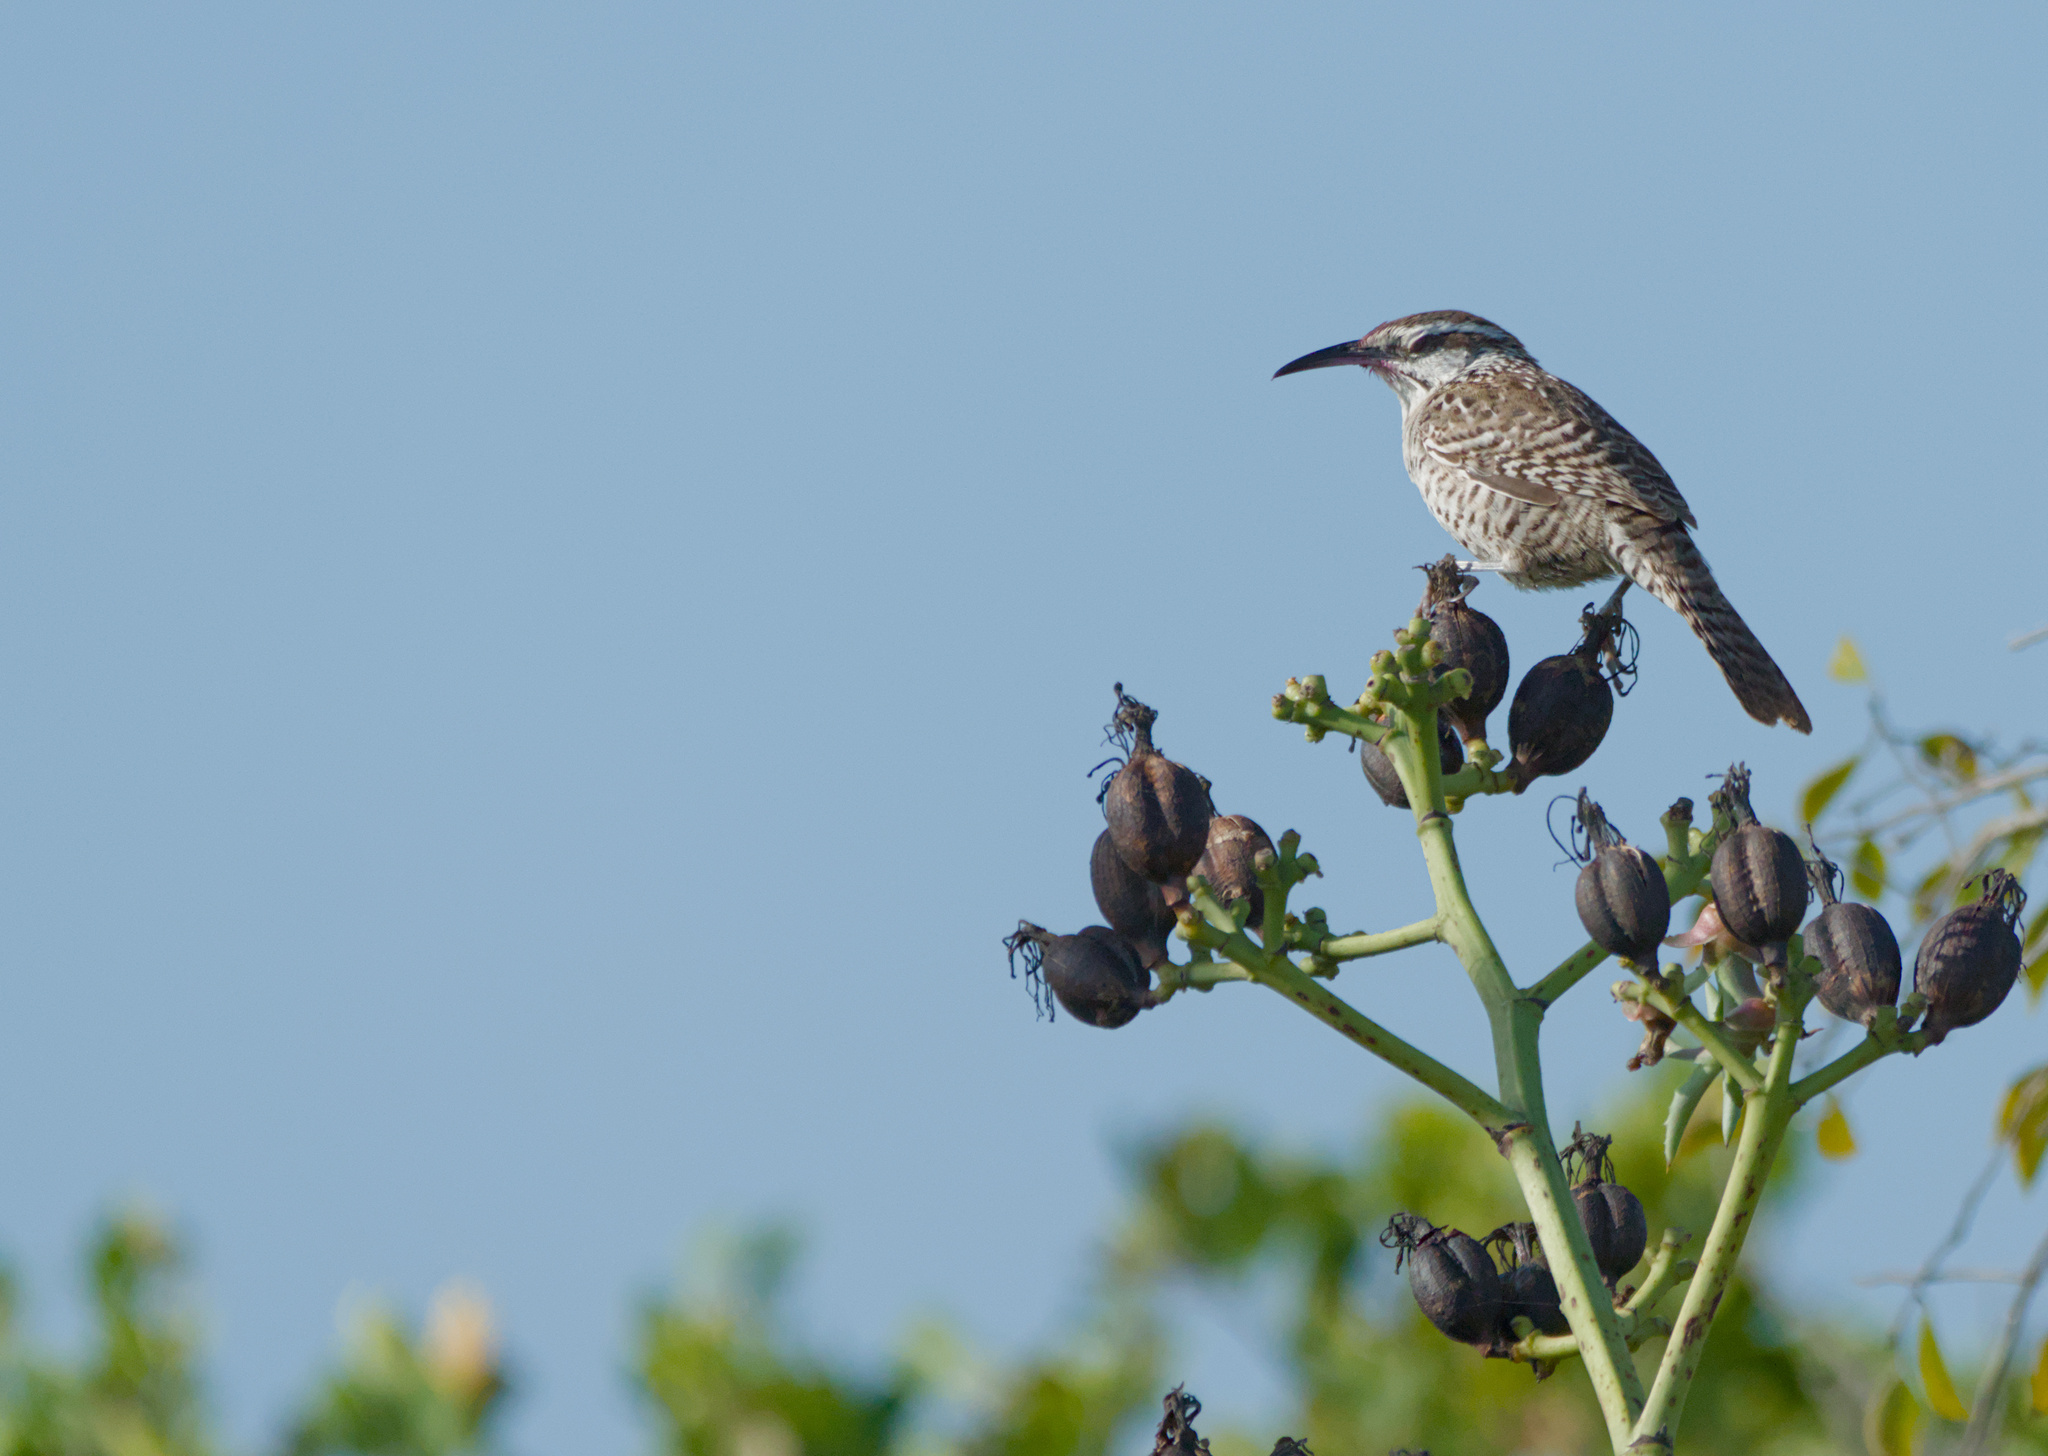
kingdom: Animalia
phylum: Chordata
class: Aves
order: Passeriformes
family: Troglodytidae
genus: Campylorhynchus
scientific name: Campylorhynchus yucatanicus
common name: Yucatan wren
